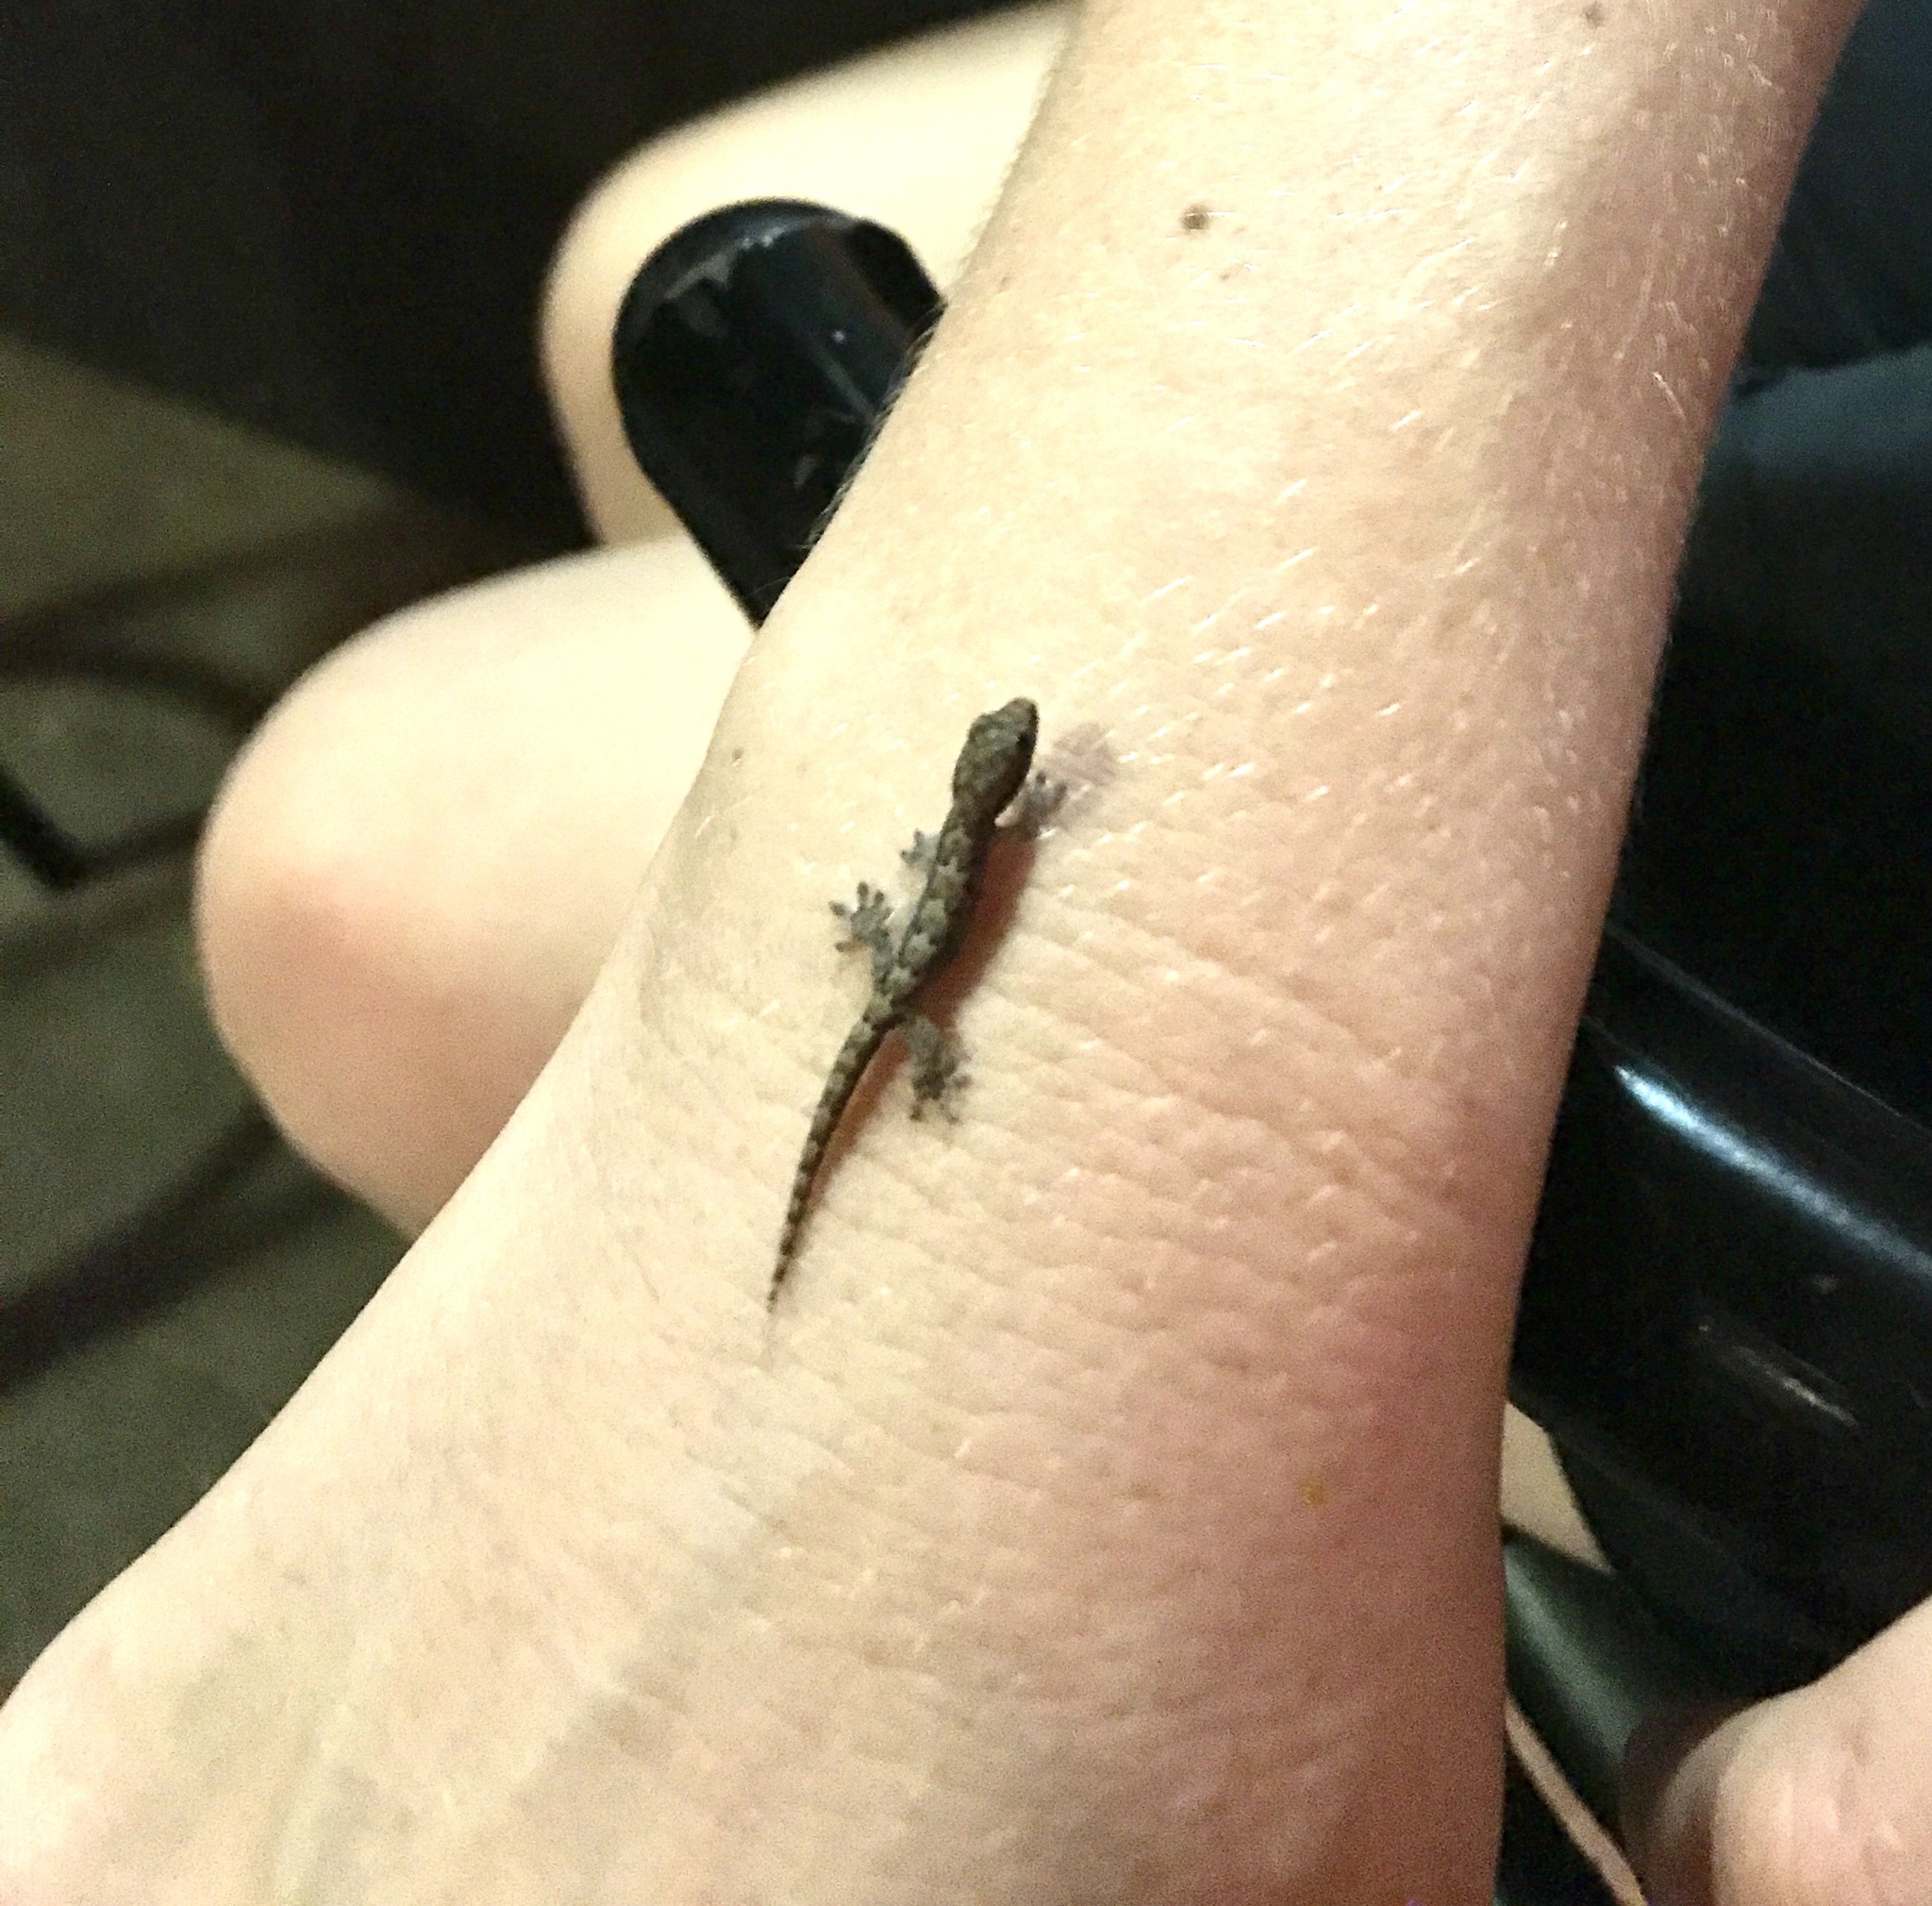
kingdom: Animalia
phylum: Chordata
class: Squamata
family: Gekkonidae
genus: Lepidodactylus
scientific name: Lepidodactylus lugubris
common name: Mourning gecko
